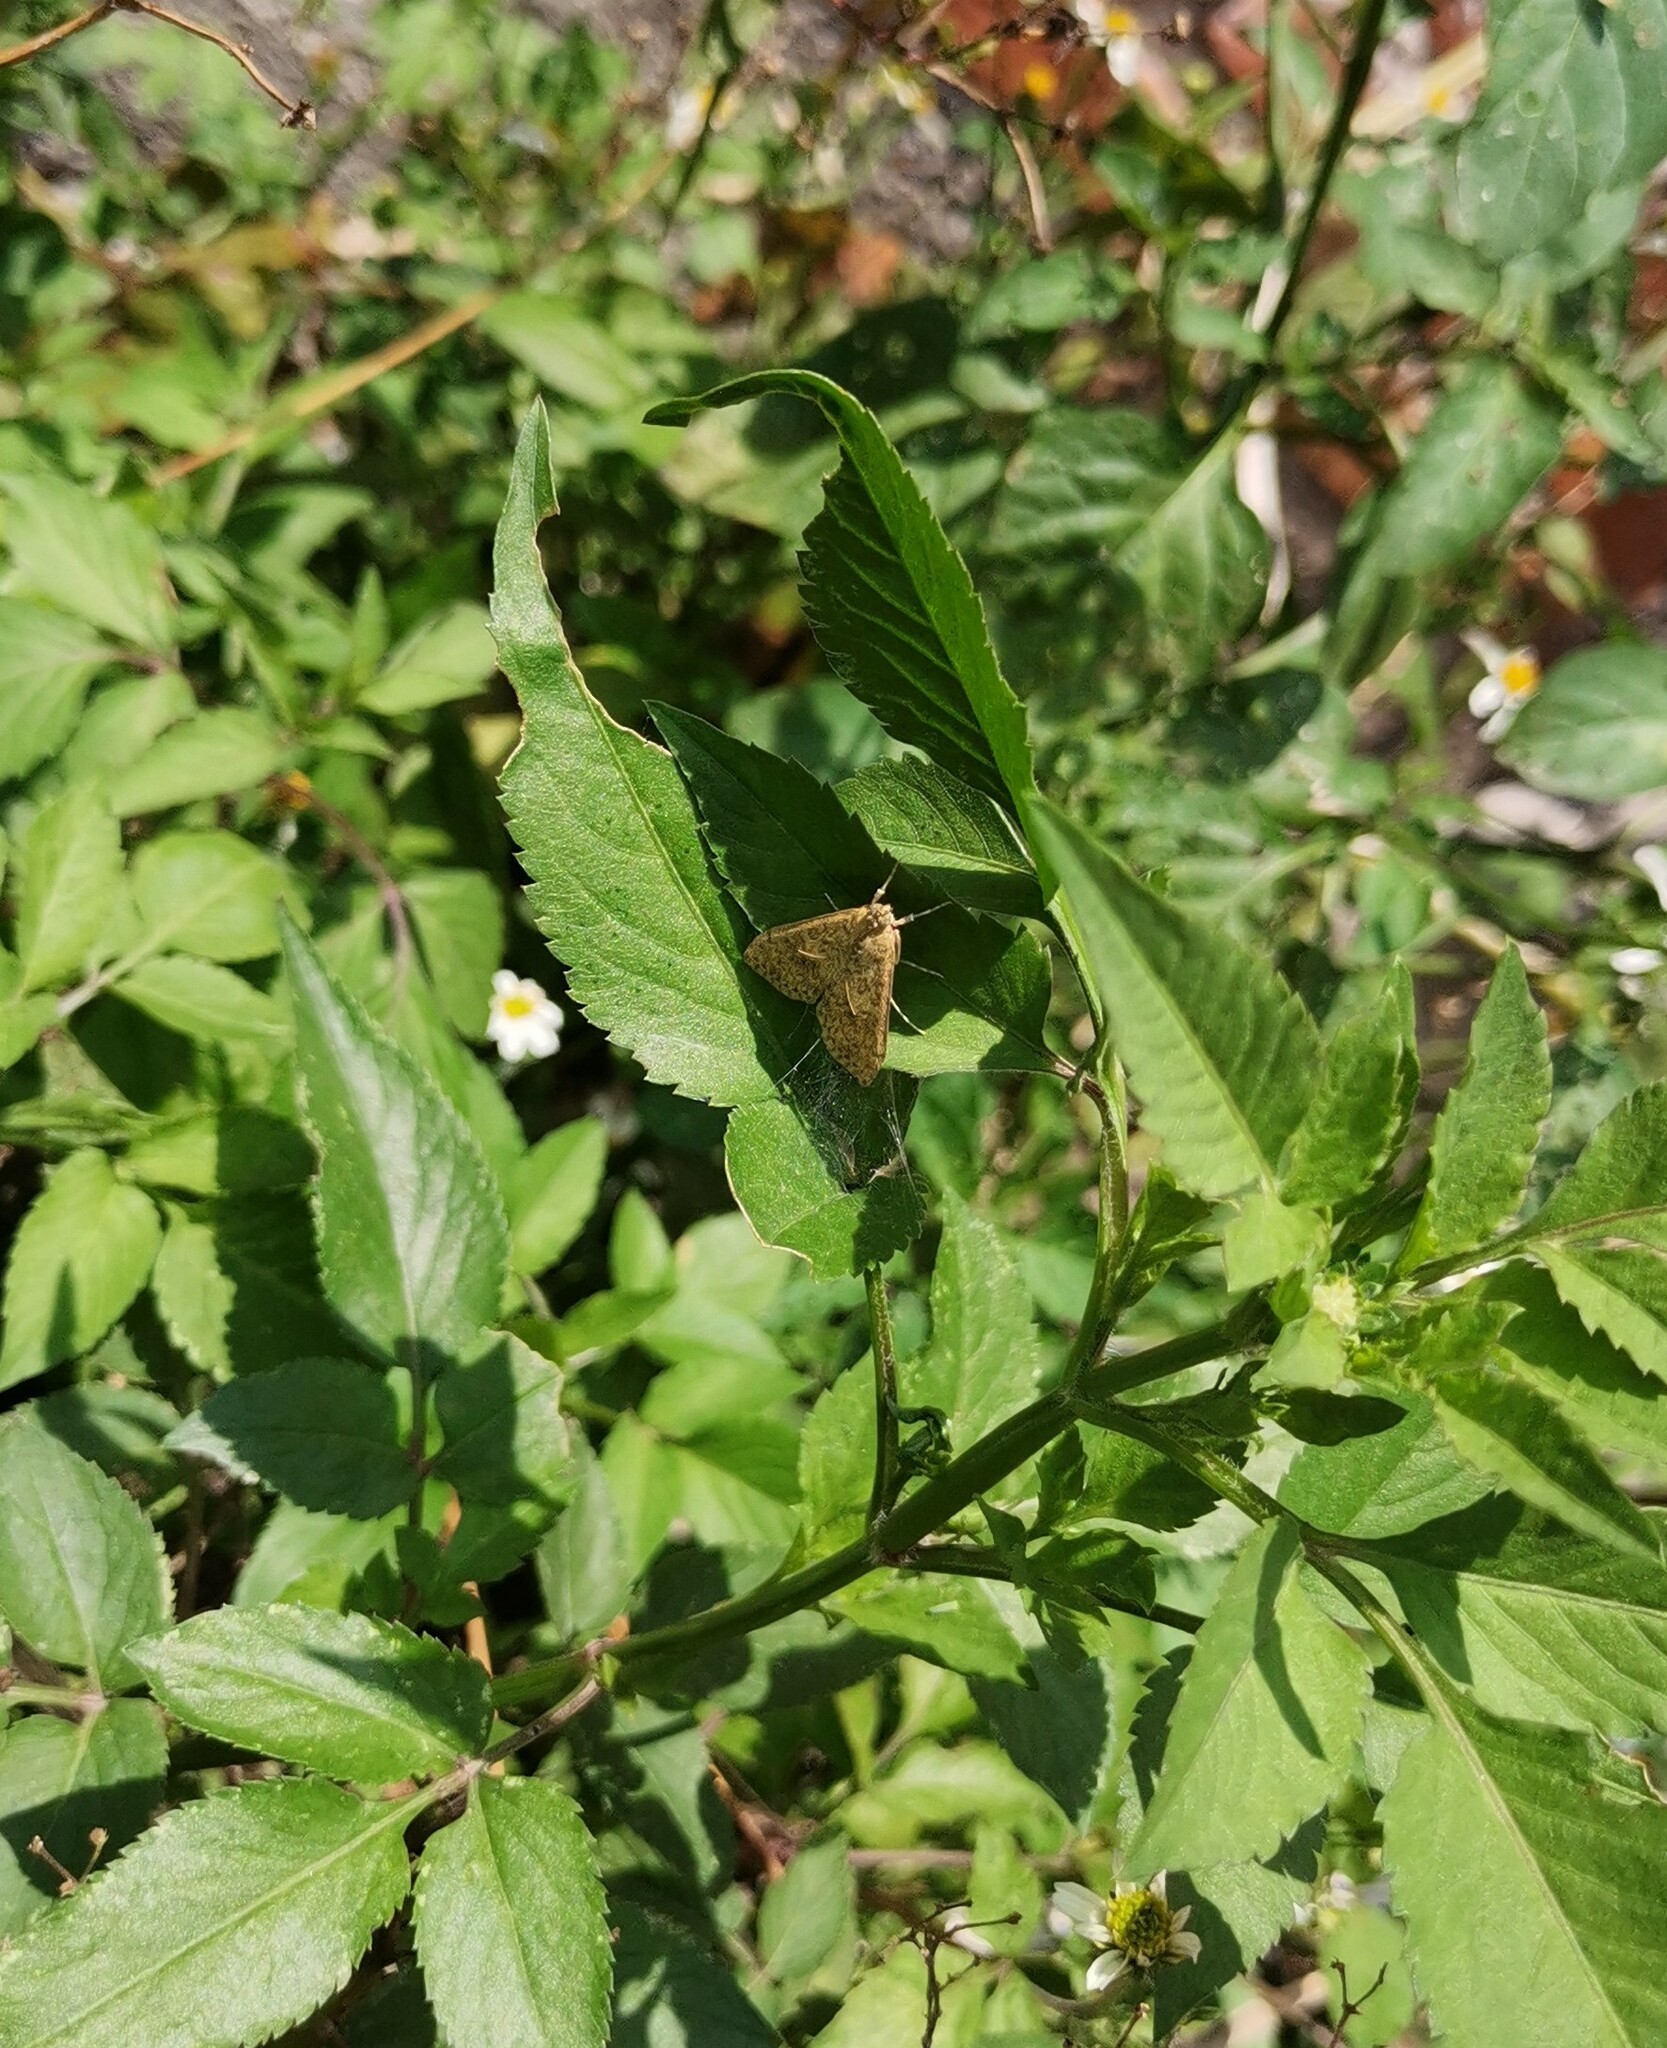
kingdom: Animalia
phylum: Arthropoda
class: Insecta
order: Lepidoptera
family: Crambidae
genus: Asciodes
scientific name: Asciodes gordialis
